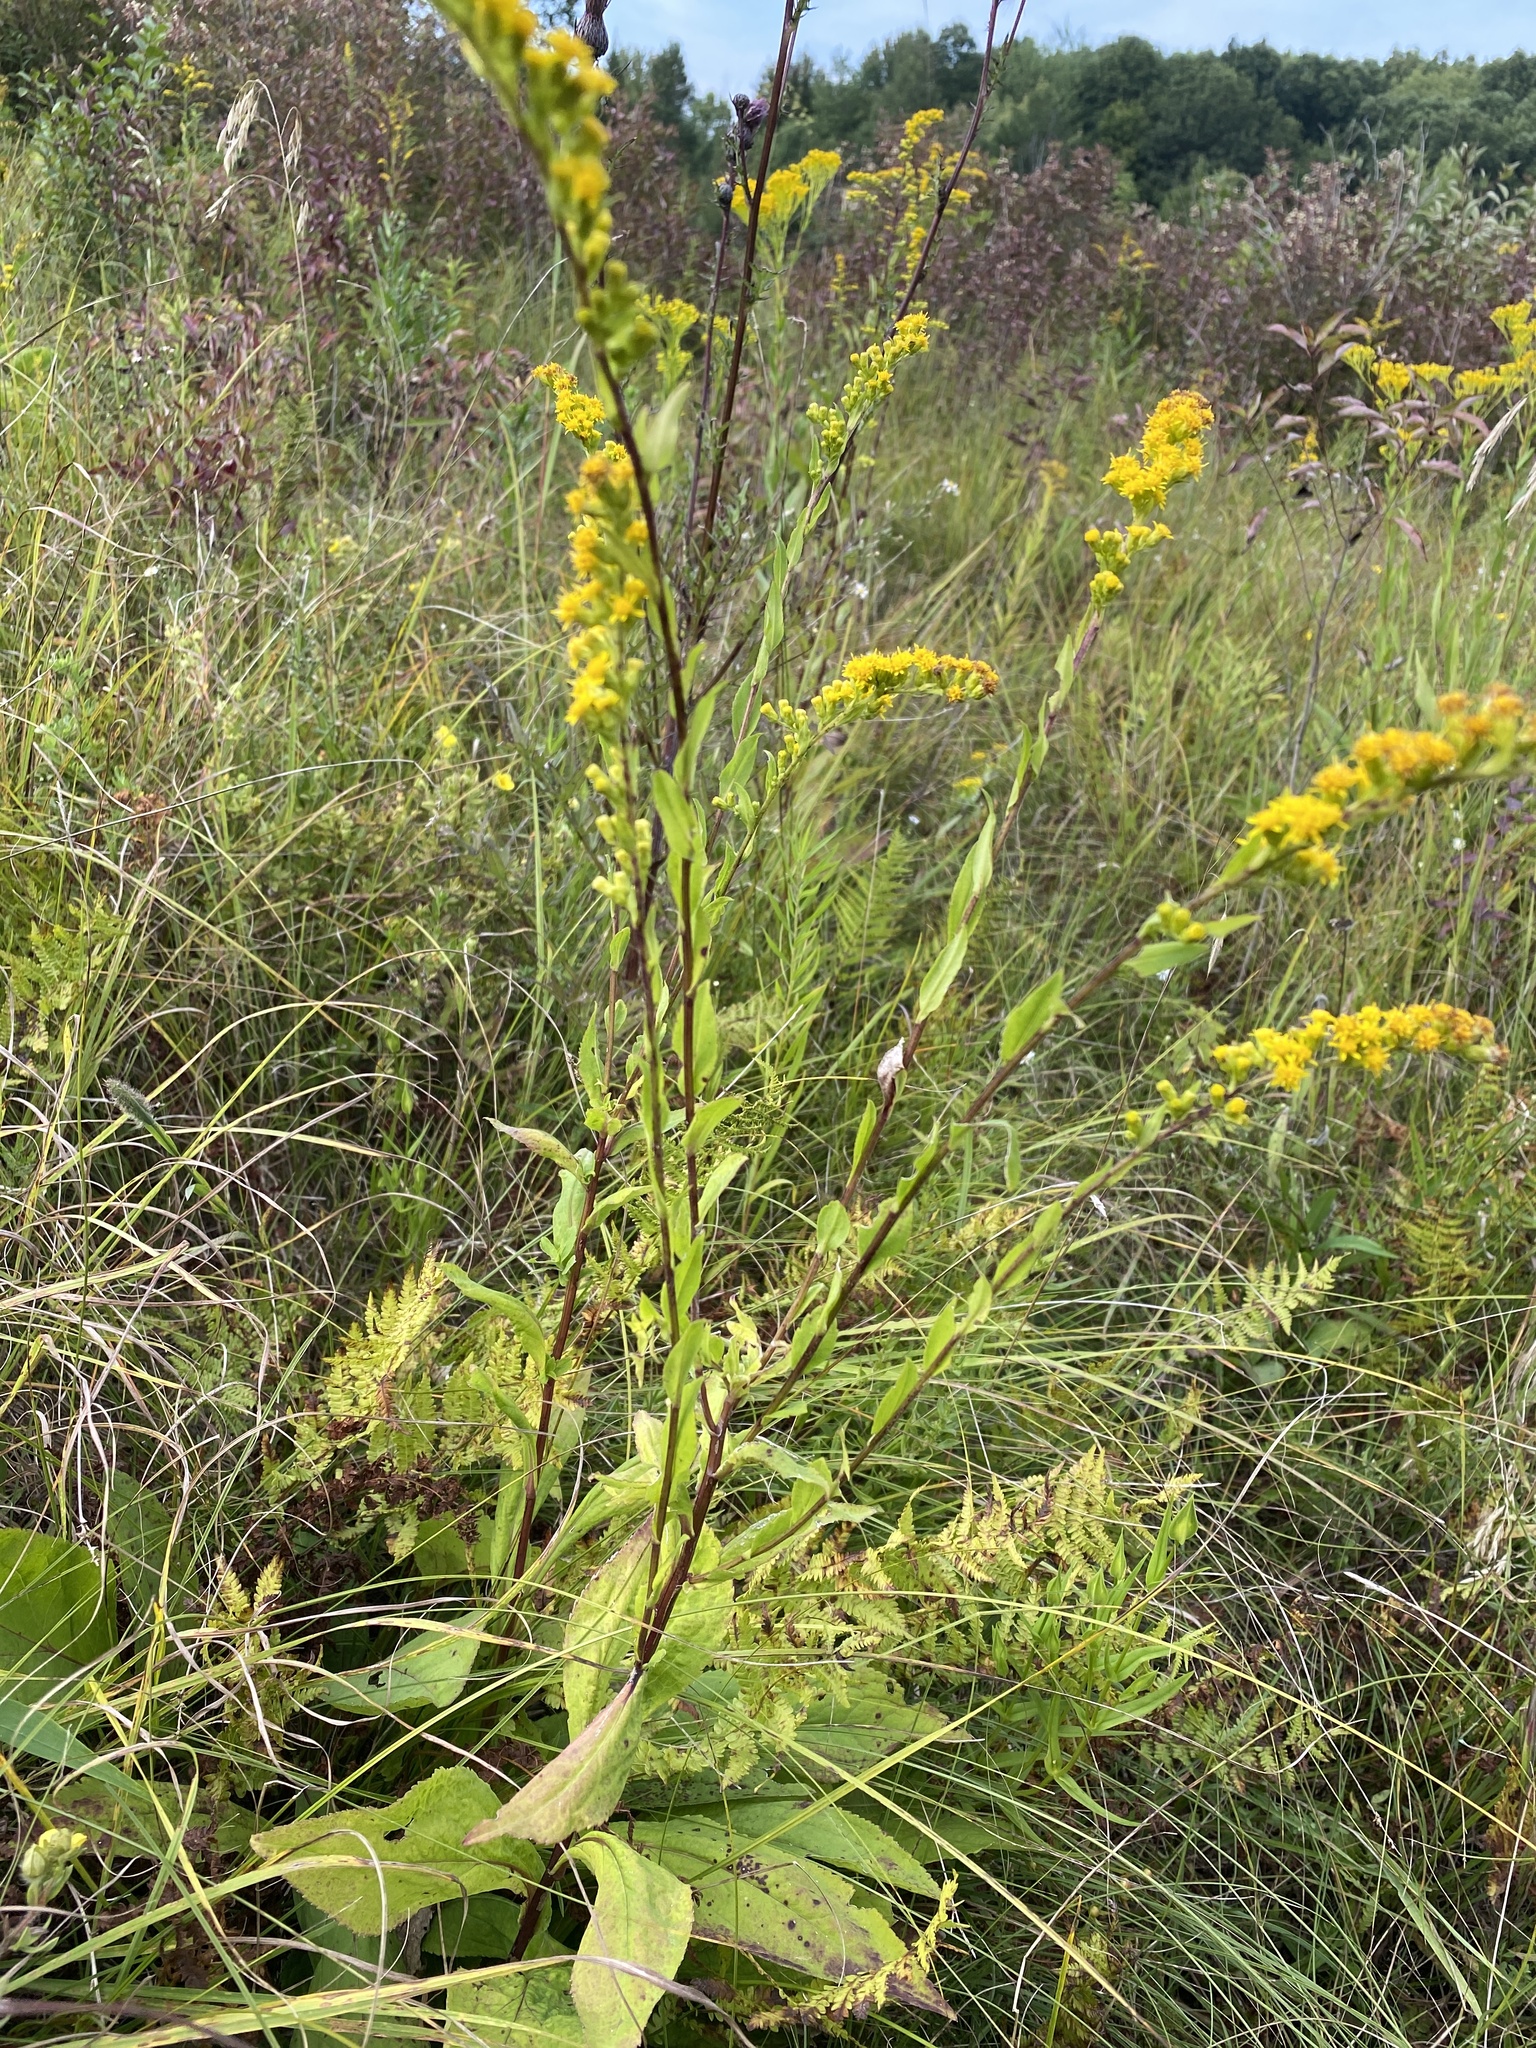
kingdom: Plantae
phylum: Tracheophyta
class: Magnoliopsida
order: Asterales
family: Asteraceae
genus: Solidago
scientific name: Solidago patula
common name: Rough-leaf goldenrod
